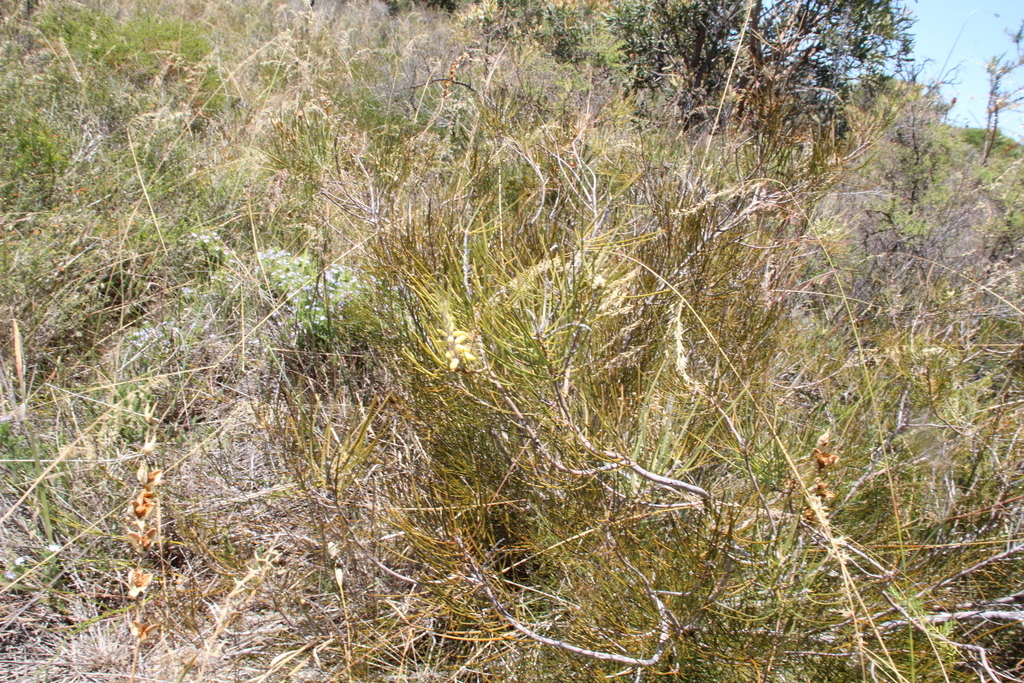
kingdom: Plantae
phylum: Tracheophyta
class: Magnoliopsida
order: Proteales
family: Proteaceae
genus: Persoonia
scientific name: Persoonia saccata
